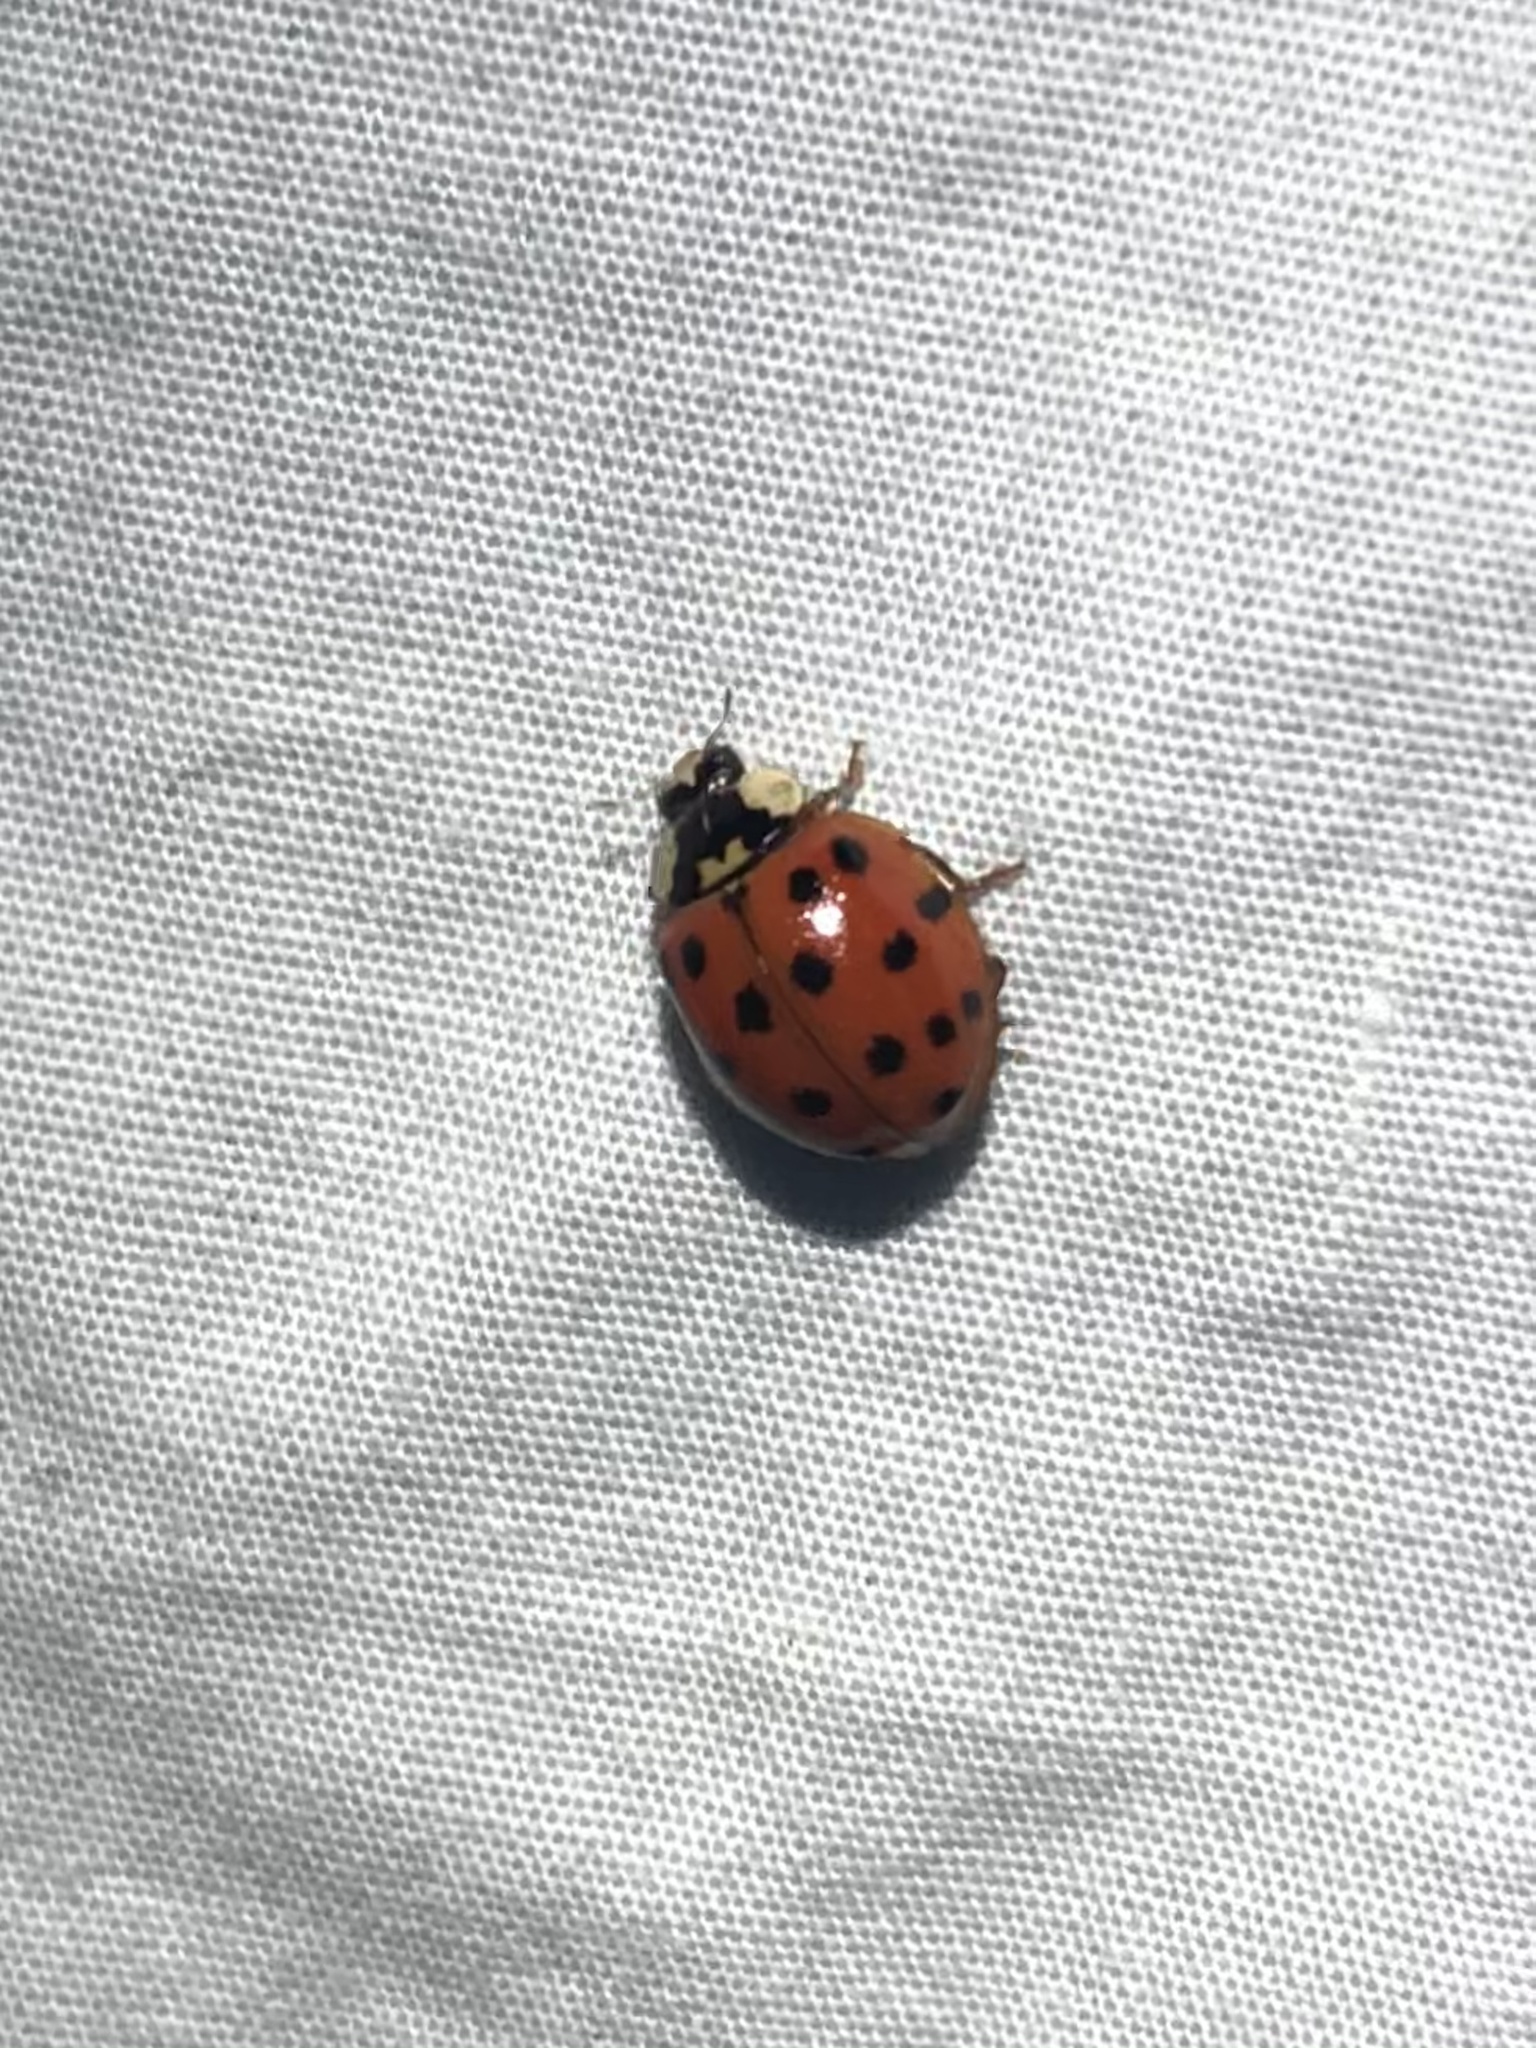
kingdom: Animalia
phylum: Arthropoda
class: Insecta
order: Coleoptera
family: Coccinellidae
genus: Harmonia
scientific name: Harmonia axyridis
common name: Harlequin ladybird
